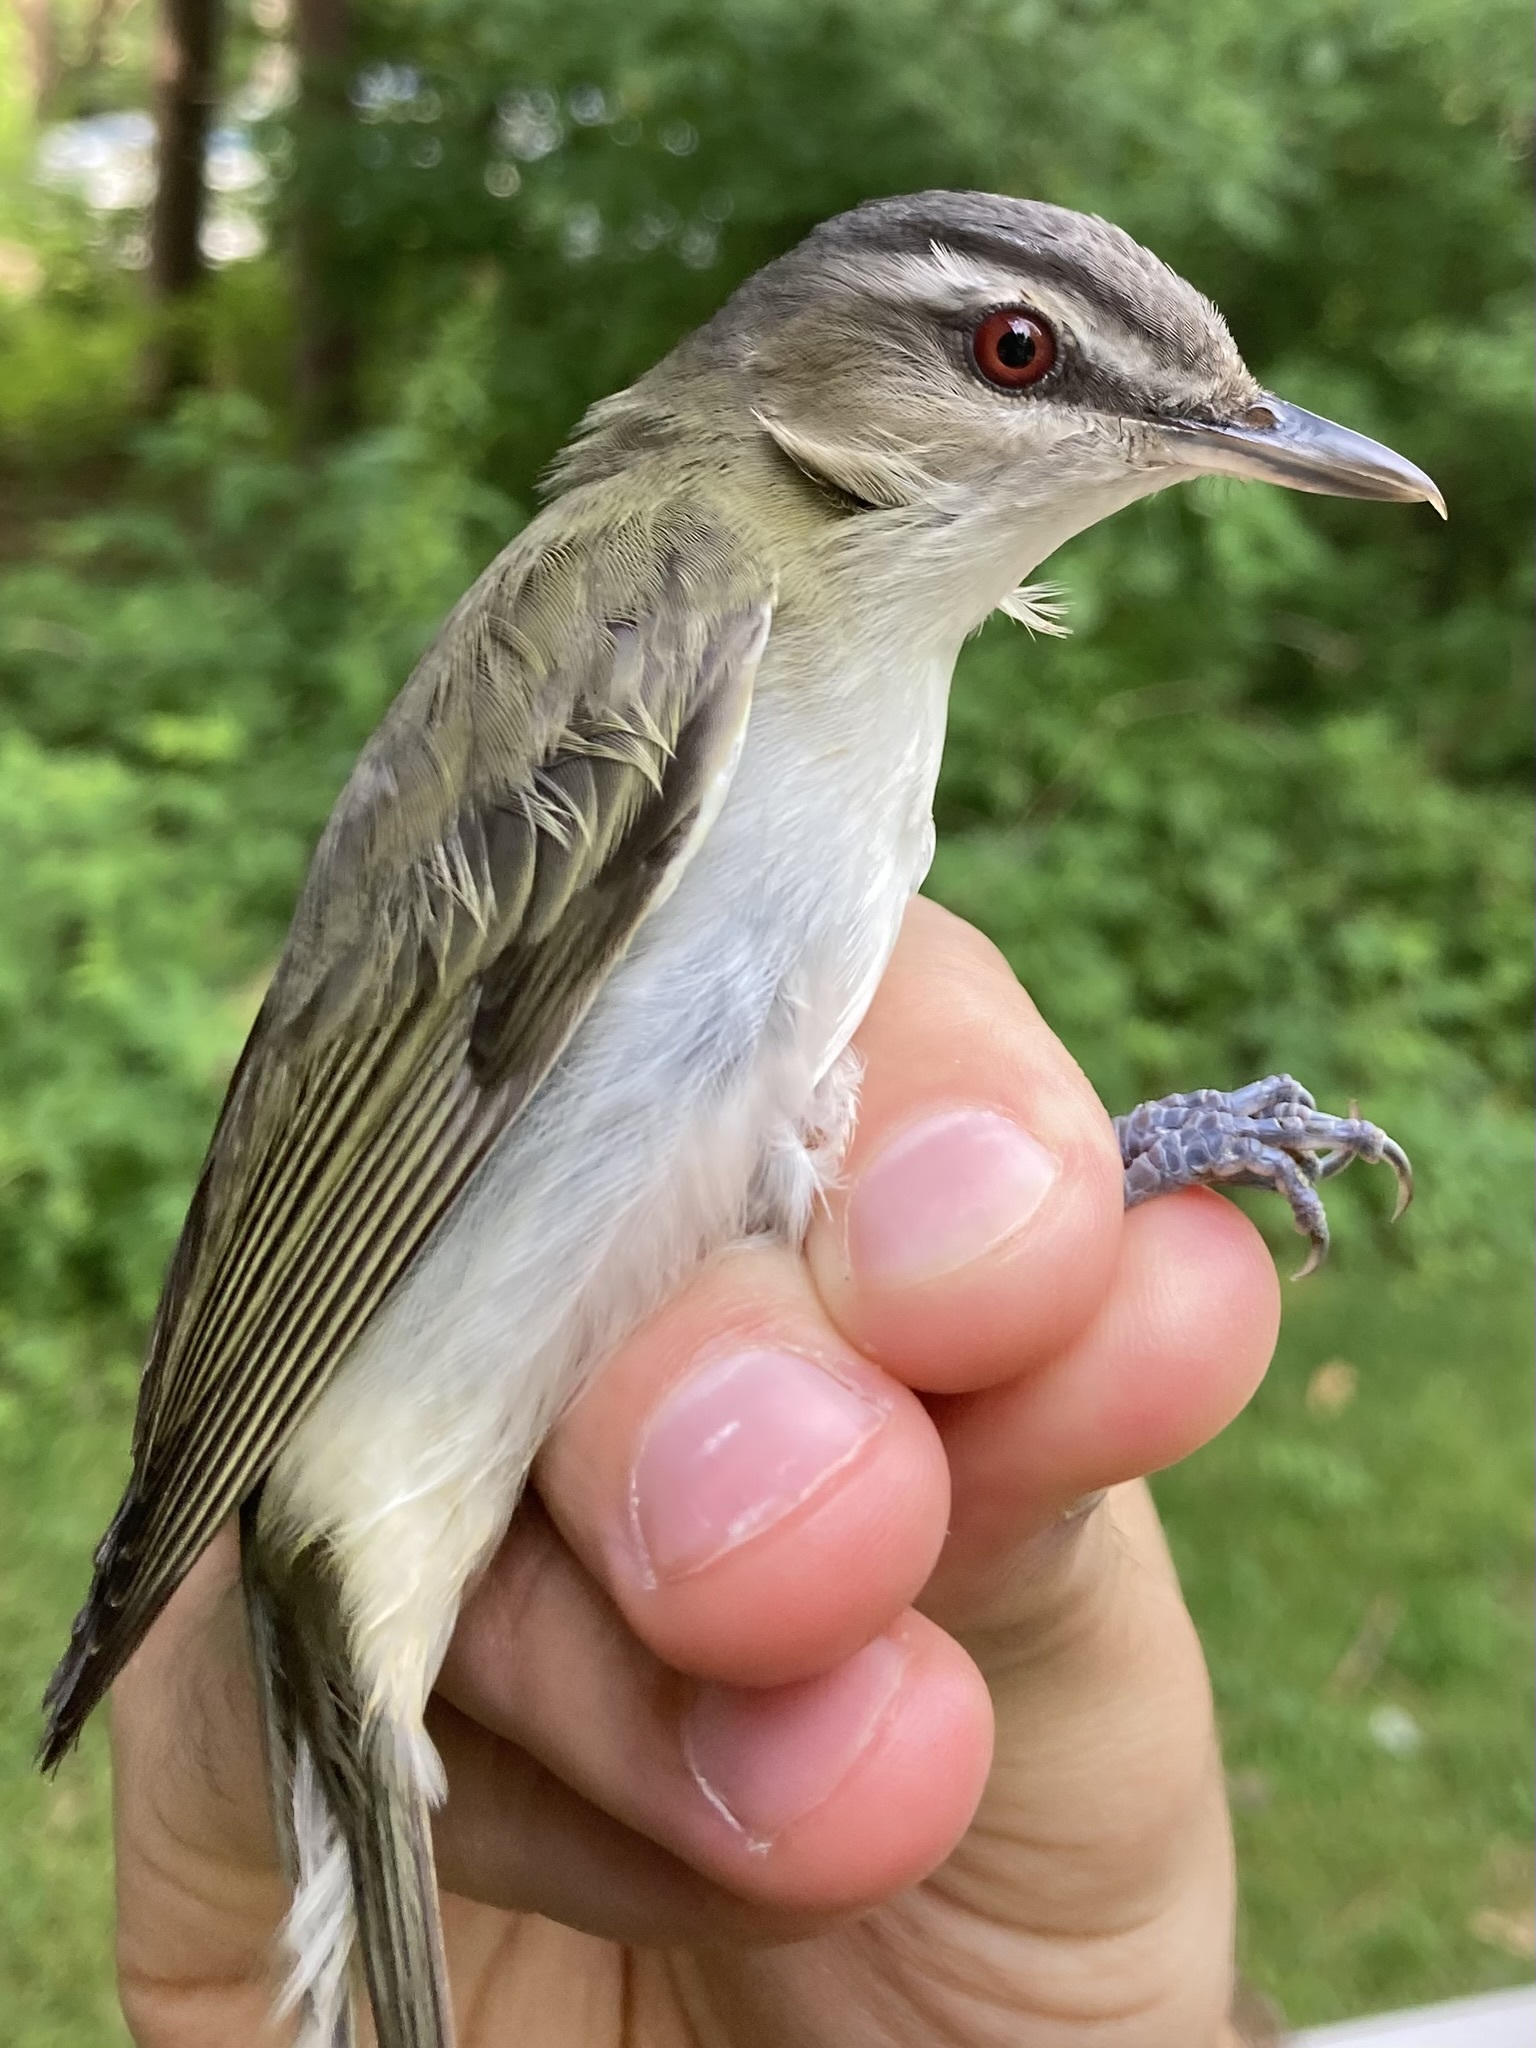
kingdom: Animalia
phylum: Chordata
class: Aves
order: Passeriformes
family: Vireonidae
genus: Vireo
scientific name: Vireo olivaceus
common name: Red-eyed vireo
